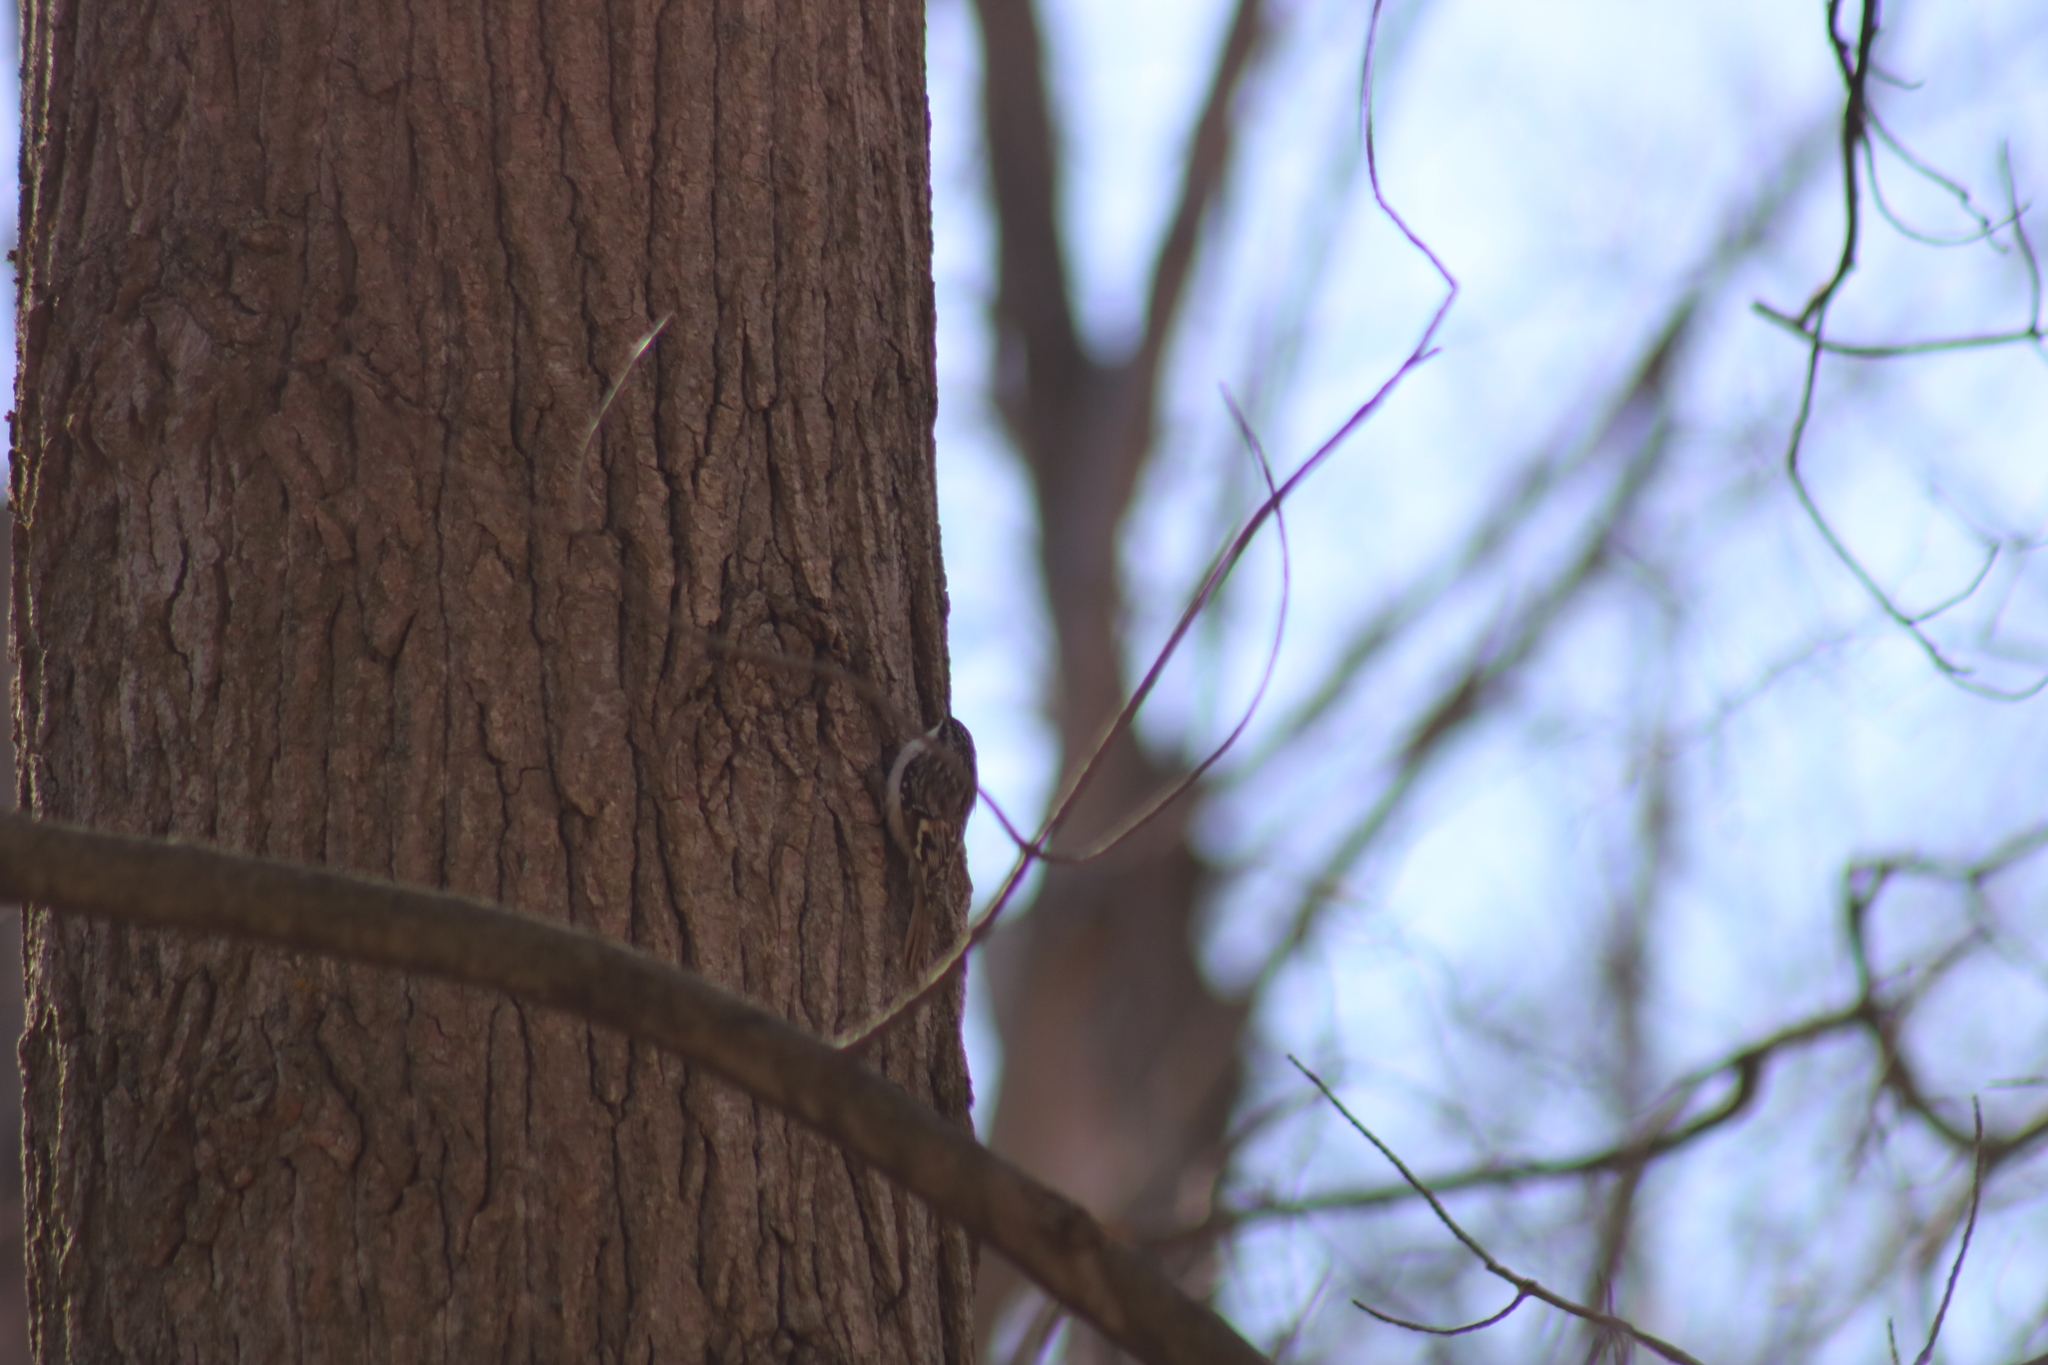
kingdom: Animalia
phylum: Chordata
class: Aves
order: Passeriformes
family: Certhiidae
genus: Certhia
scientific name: Certhia americana
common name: Brown creeper
